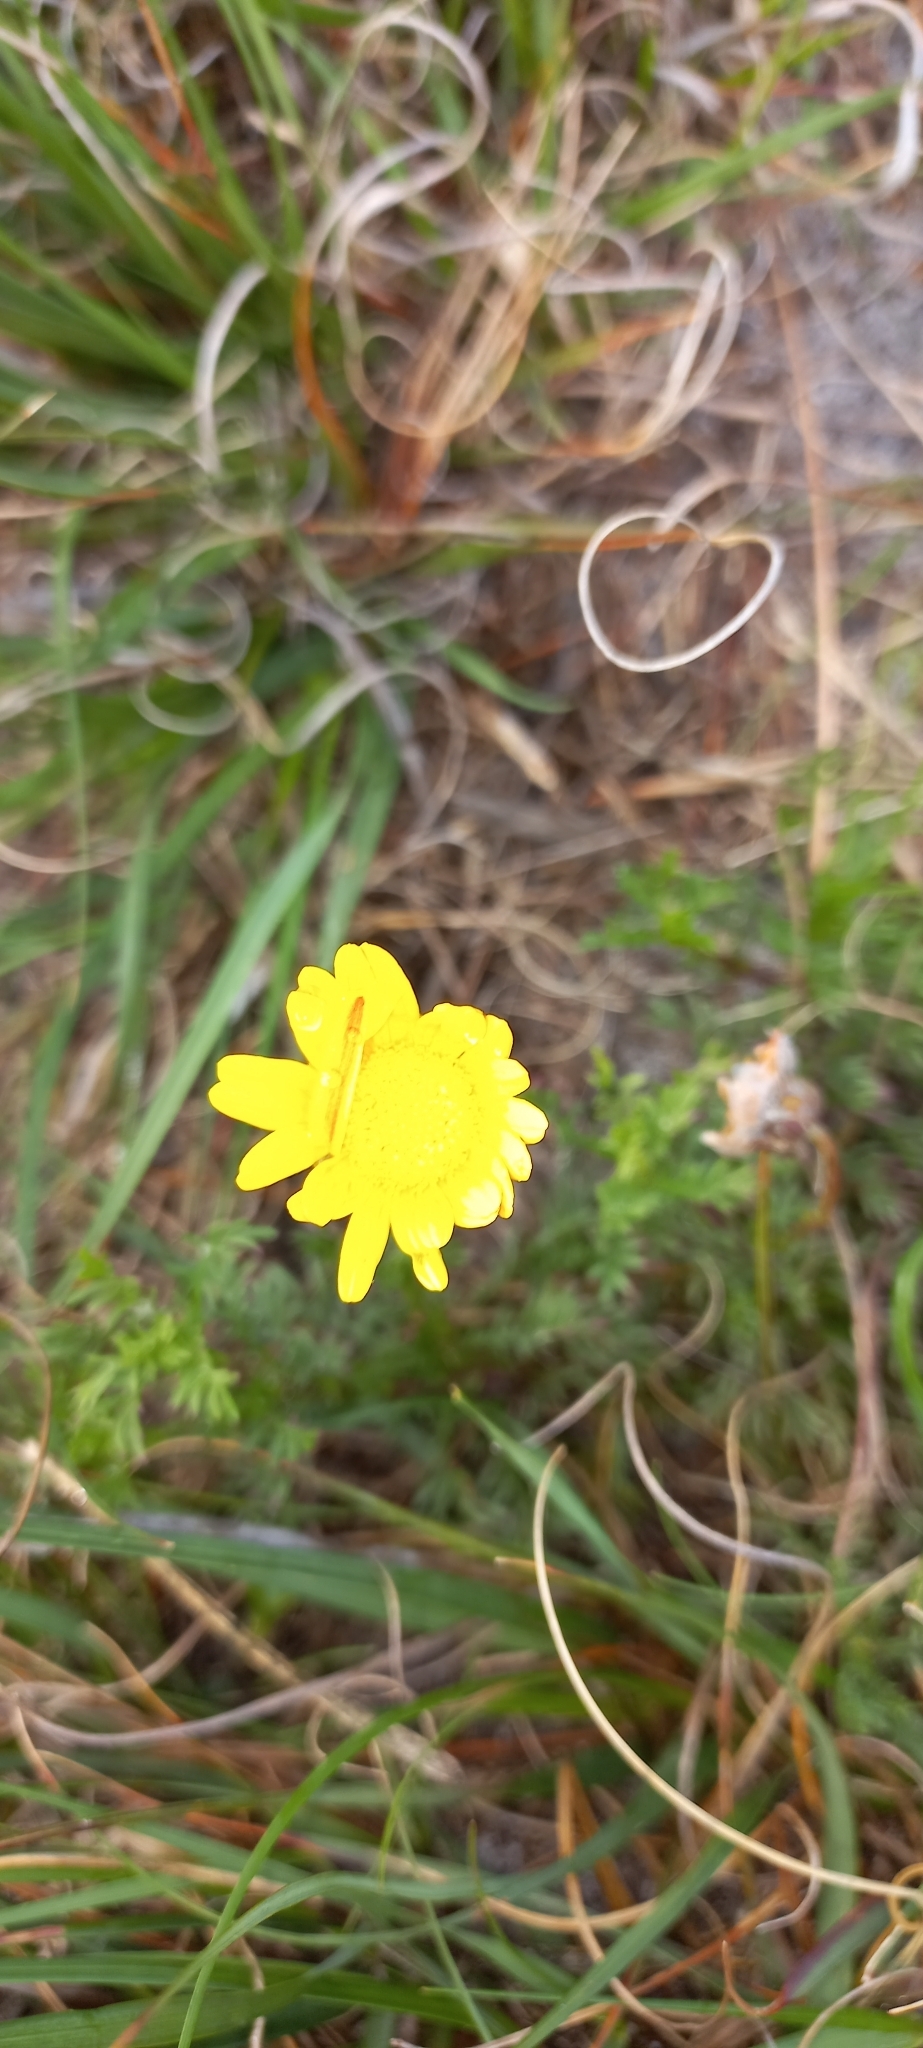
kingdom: Plantae
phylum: Tracheophyta
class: Magnoliopsida
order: Asterales
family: Asteraceae
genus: Ursinia
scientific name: Ursinia nudicaulis
